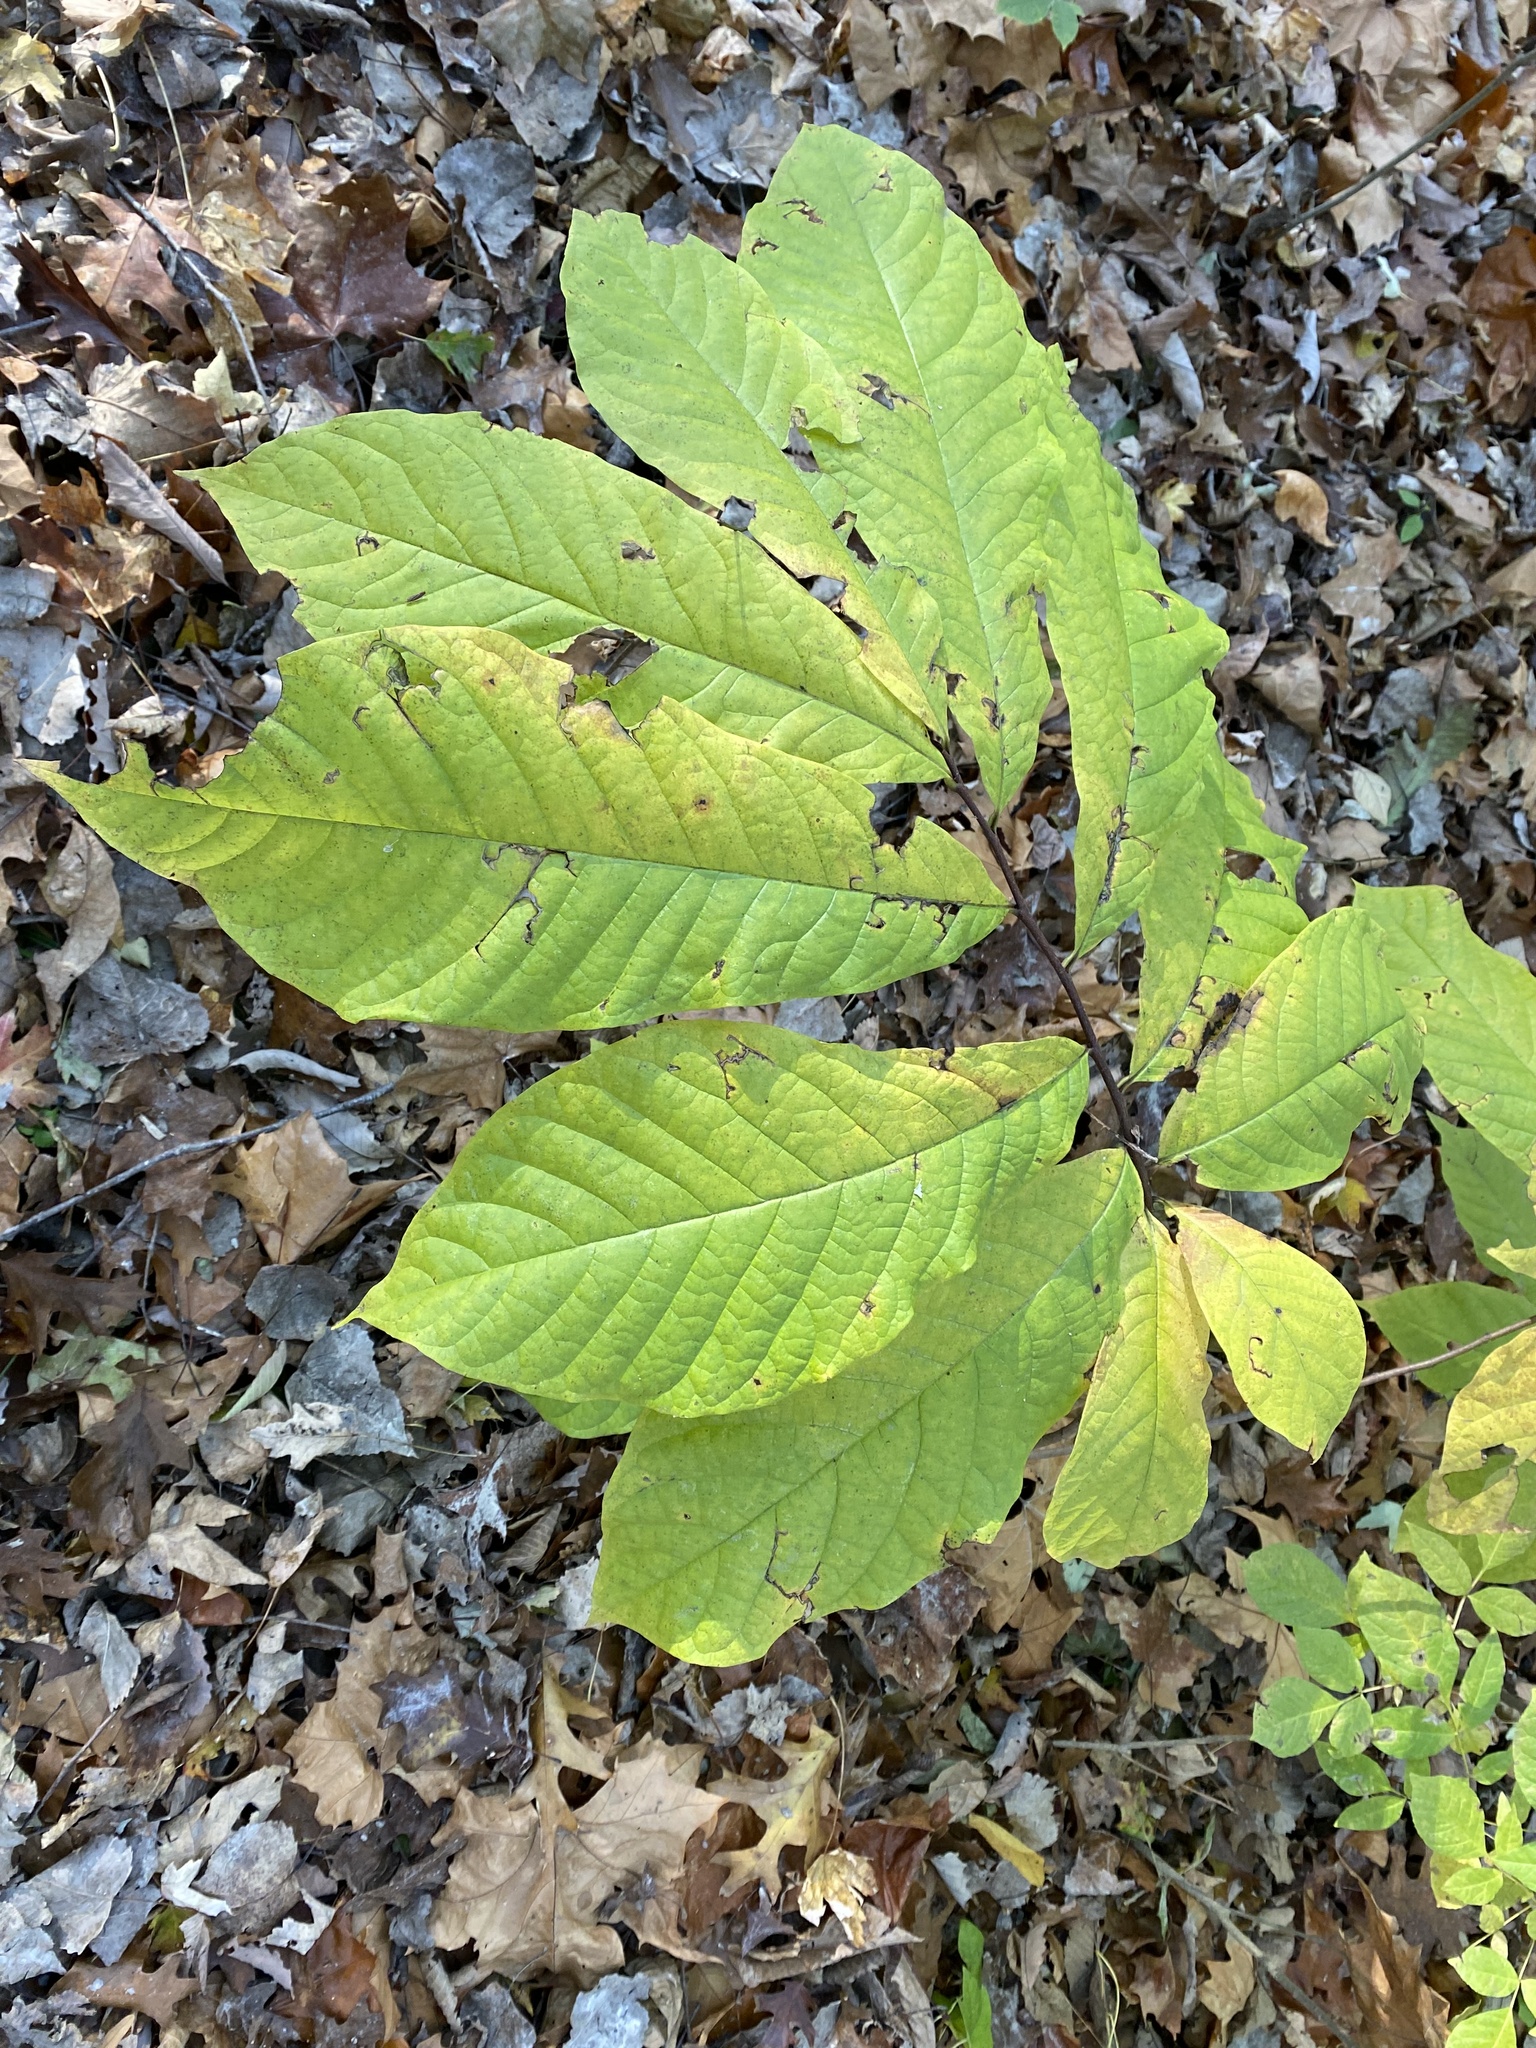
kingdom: Plantae
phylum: Tracheophyta
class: Magnoliopsida
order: Magnoliales
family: Annonaceae
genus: Asimina
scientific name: Asimina triloba
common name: Dog-banana
